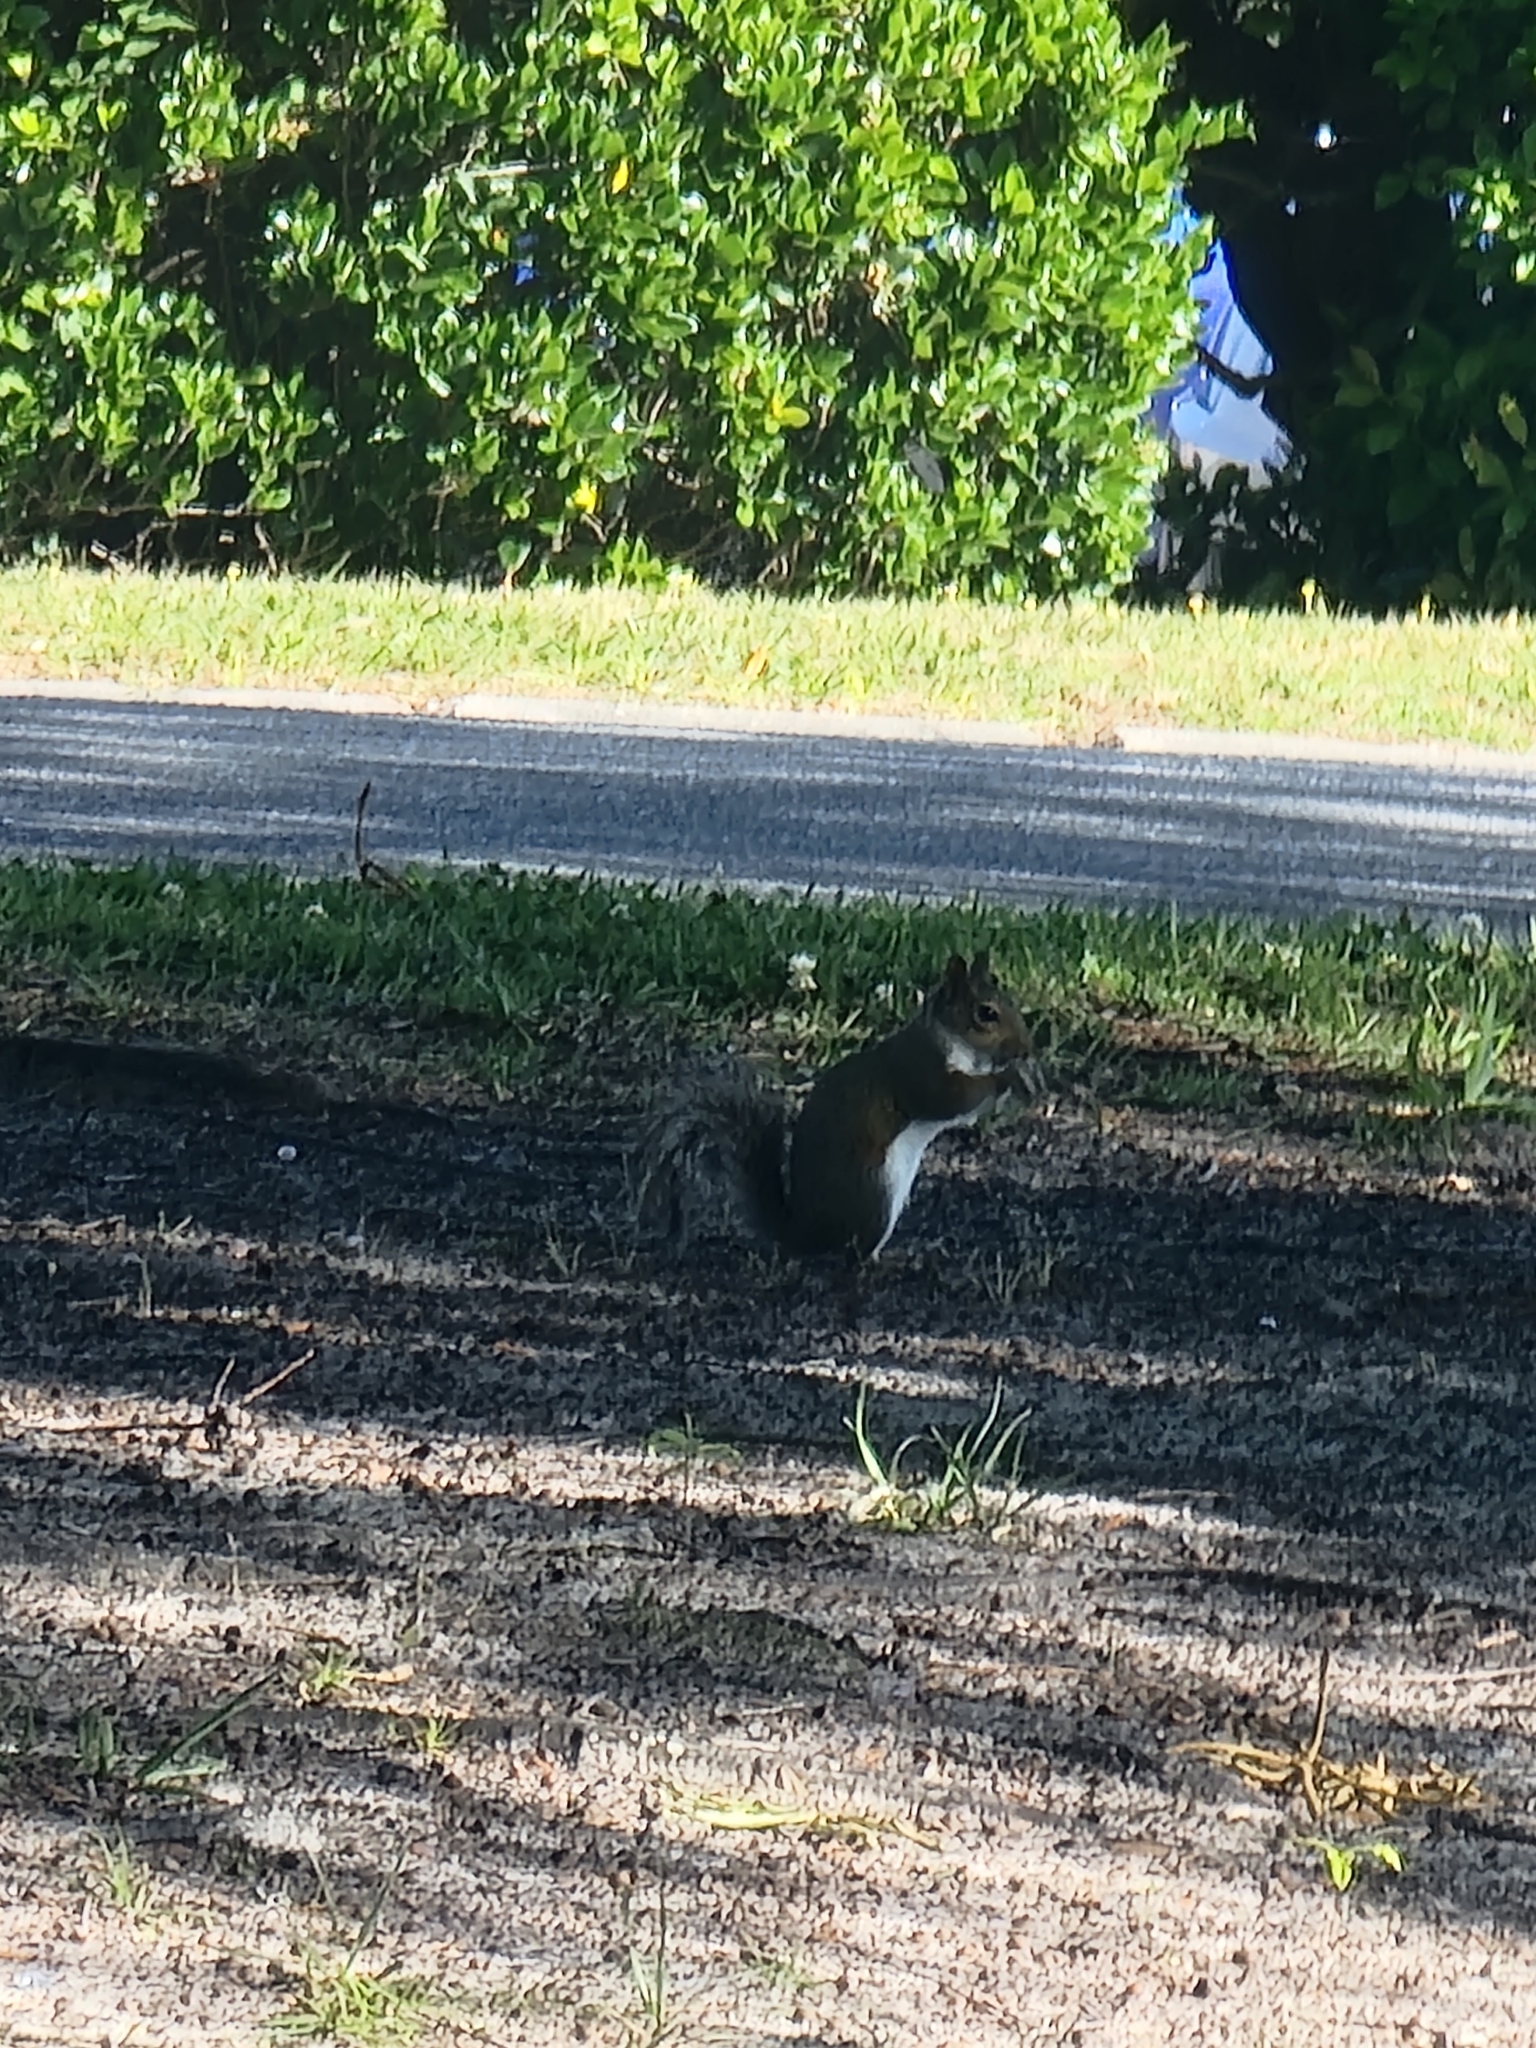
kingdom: Animalia
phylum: Chordata
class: Mammalia
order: Rodentia
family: Sciuridae
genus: Sciurus
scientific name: Sciurus carolinensis
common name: Eastern gray squirrel
